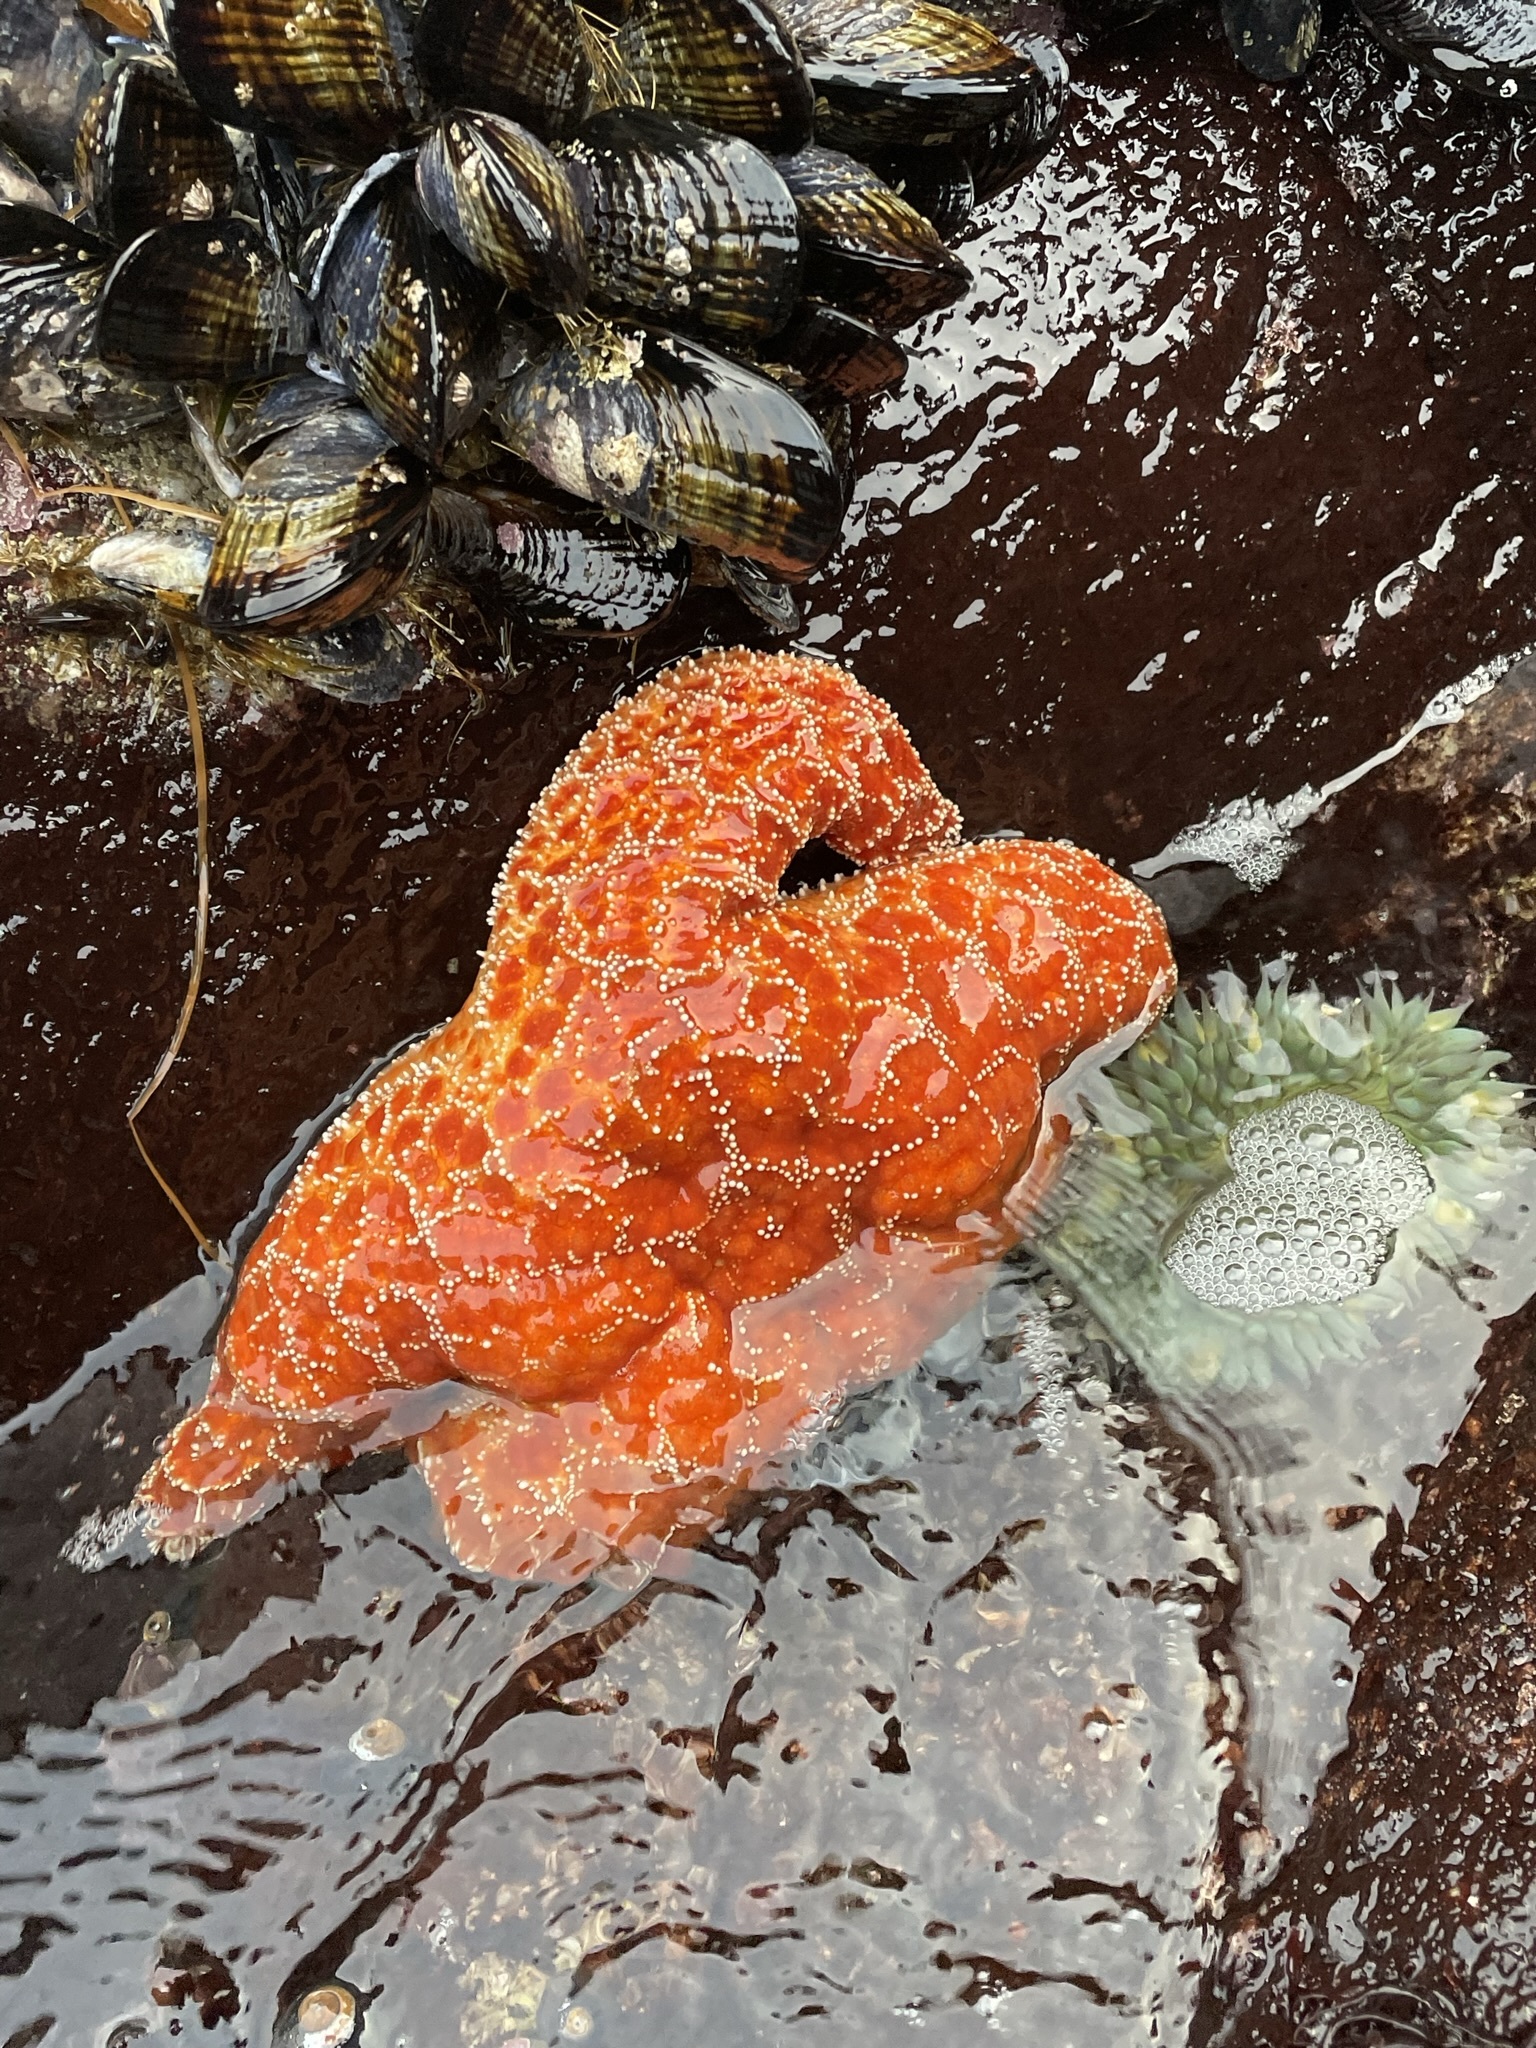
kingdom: Animalia
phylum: Echinodermata
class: Asteroidea
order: Forcipulatida
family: Asteriidae
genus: Pisaster
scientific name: Pisaster ochraceus
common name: Ochre stars
